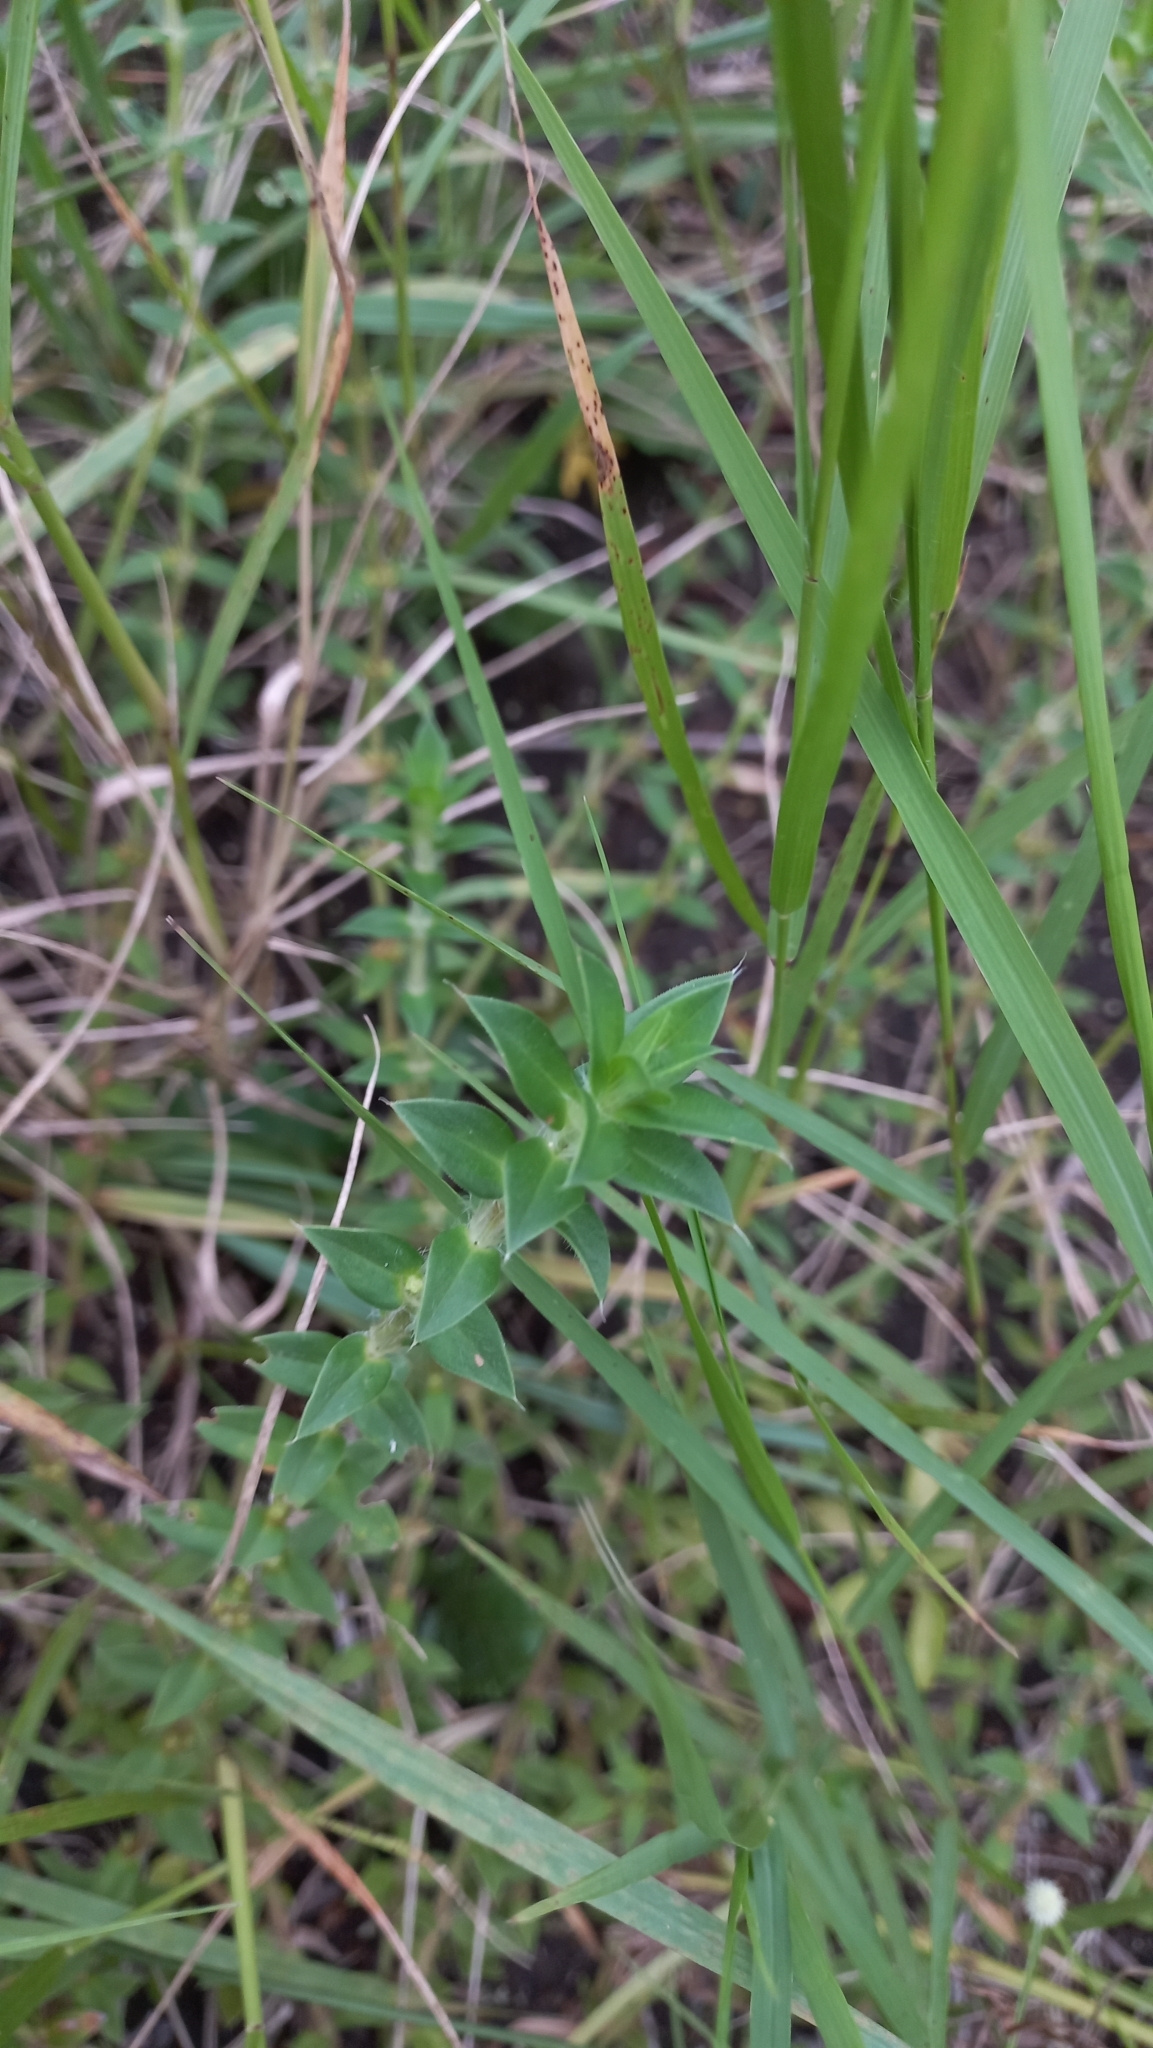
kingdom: Plantae
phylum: Tracheophyta
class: Magnoliopsida
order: Gentianales
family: Rubiaceae
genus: Hexasepalum
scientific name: Hexasepalum apiculatum
